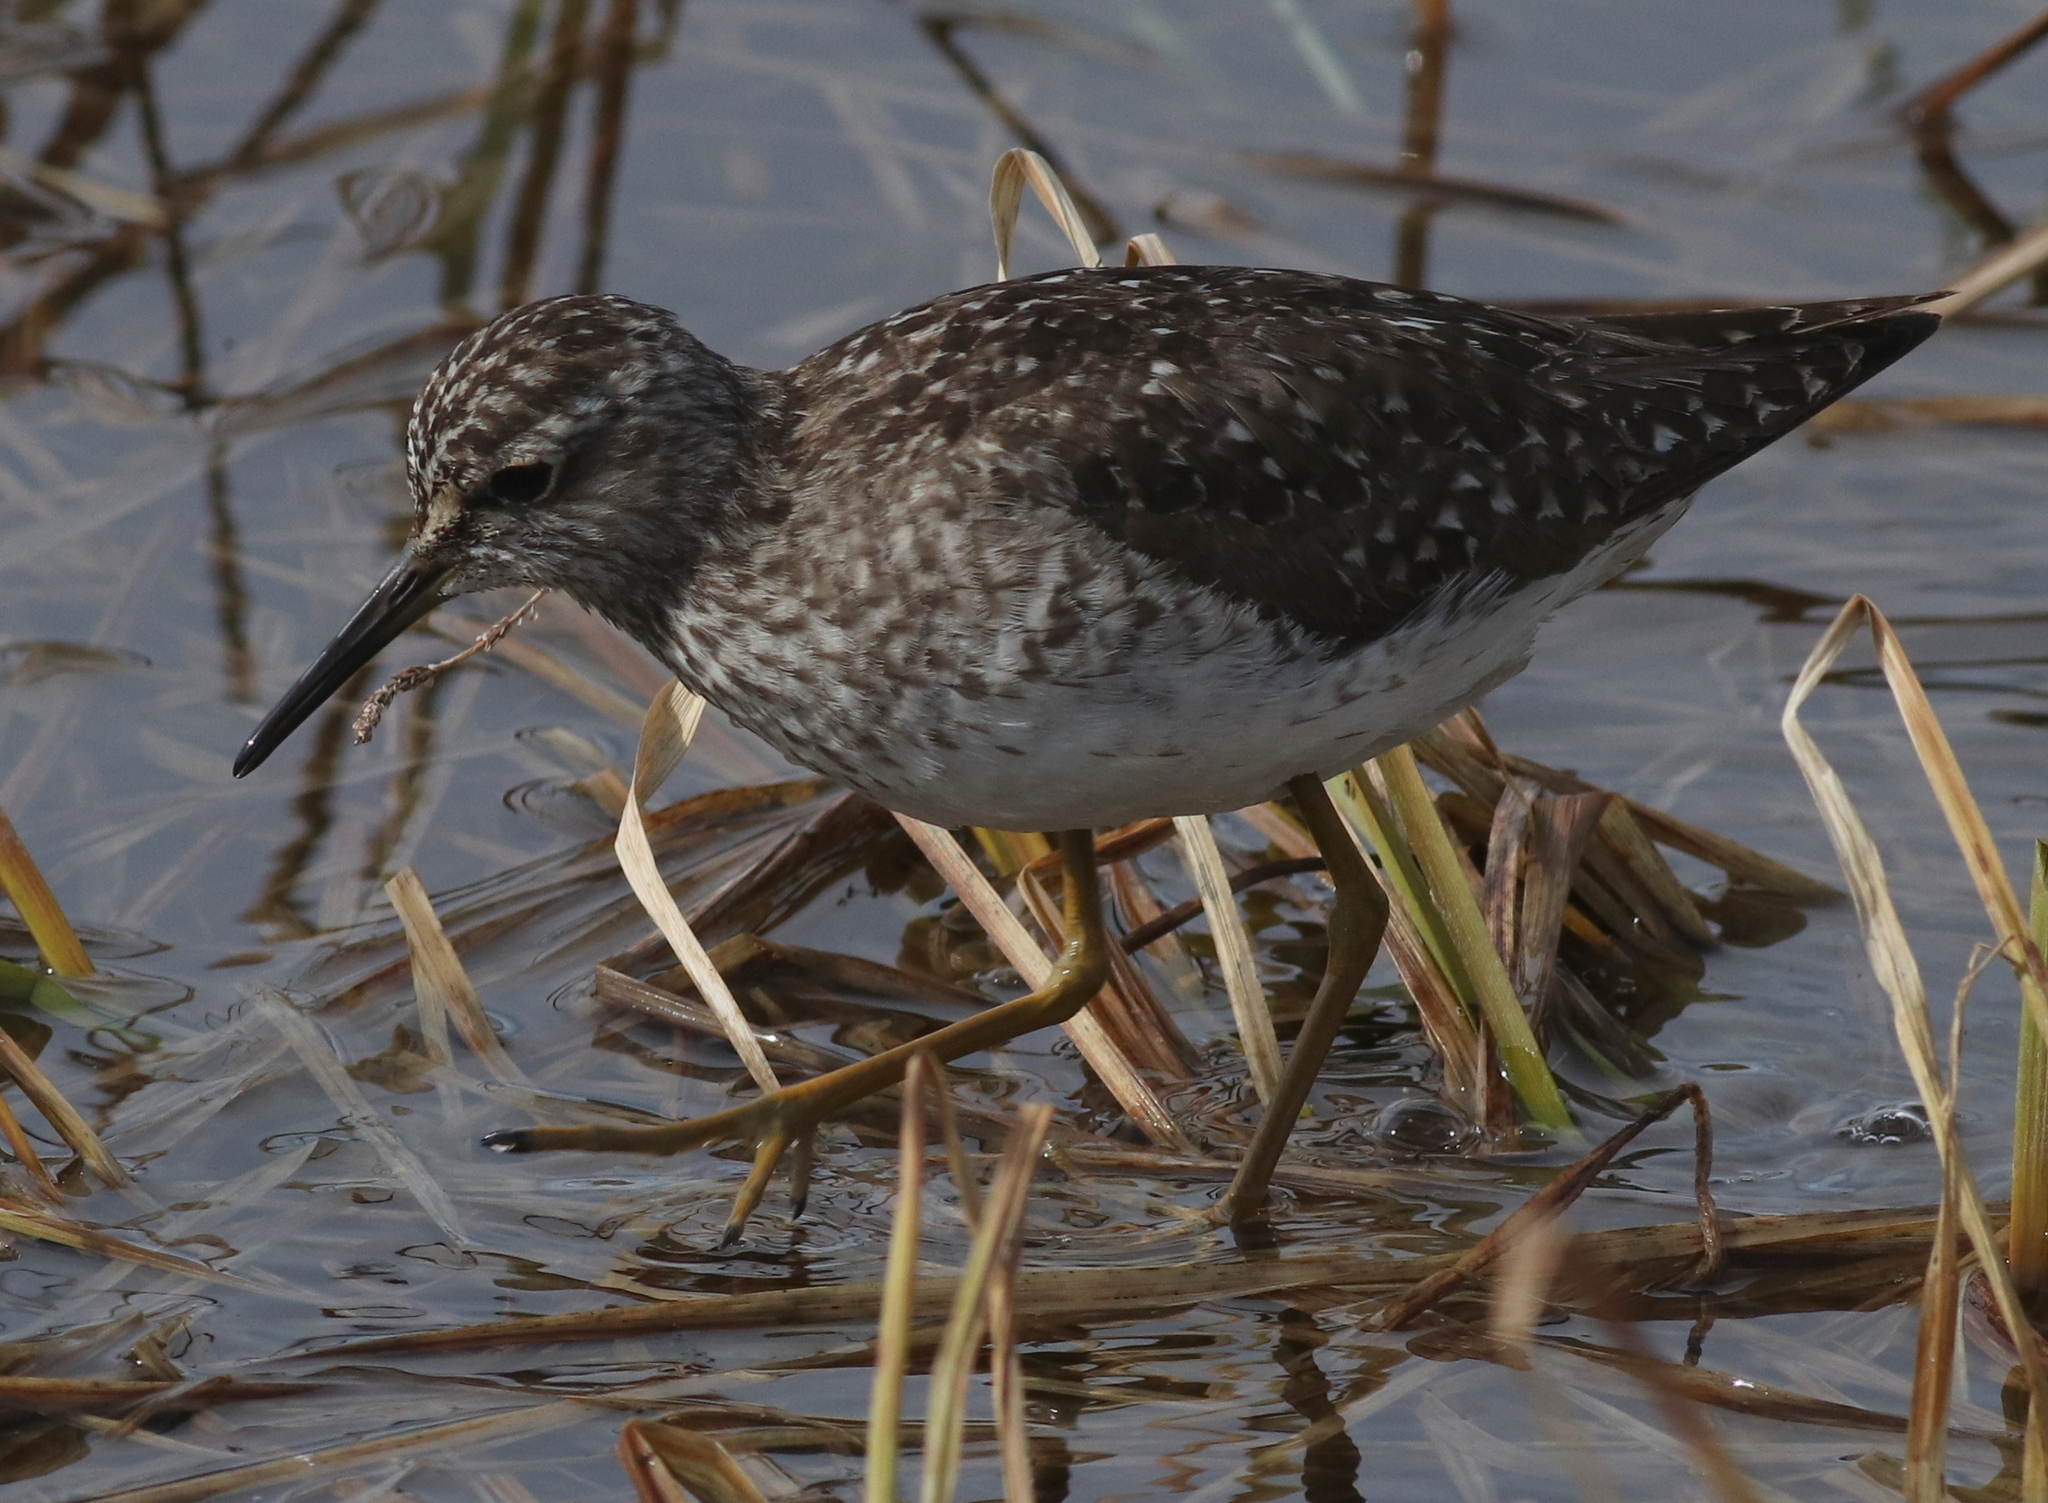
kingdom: Animalia
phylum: Chordata
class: Aves
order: Charadriiformes
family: Scolopacidae
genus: Tringa
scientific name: Tringa glareola
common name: Wood sandpiper
